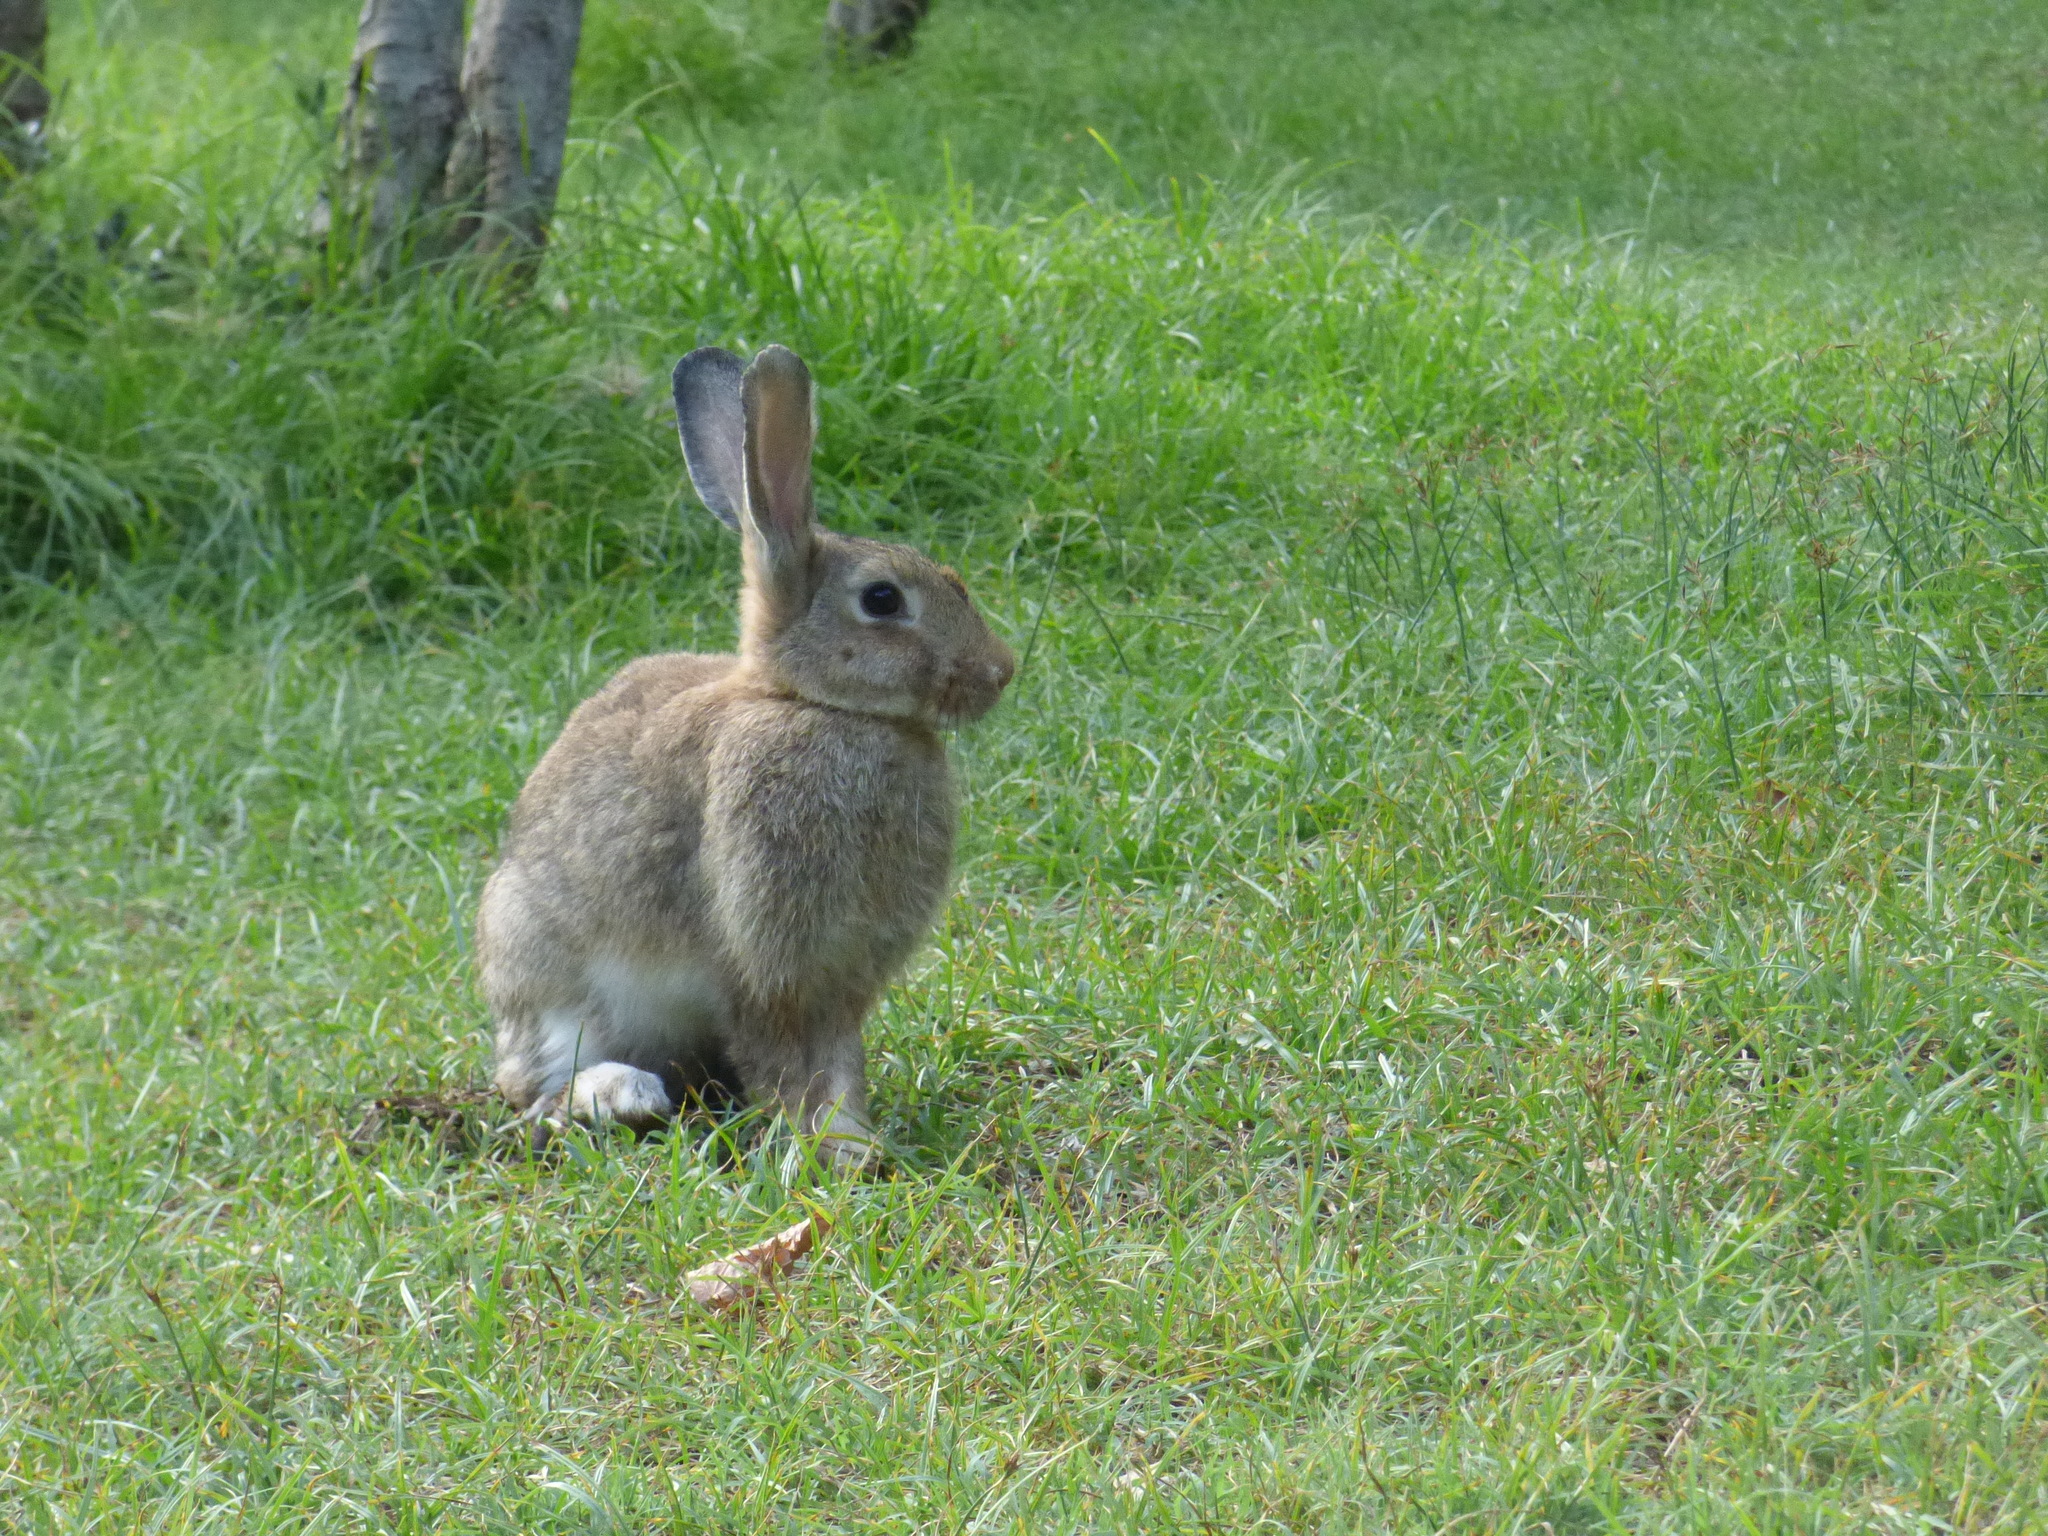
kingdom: Animalia
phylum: Chordata
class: Mammalia
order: Lagomorpha
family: Leporidae
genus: Oryctolagus
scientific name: Oryctolagus cuniculus
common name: European rabbit
